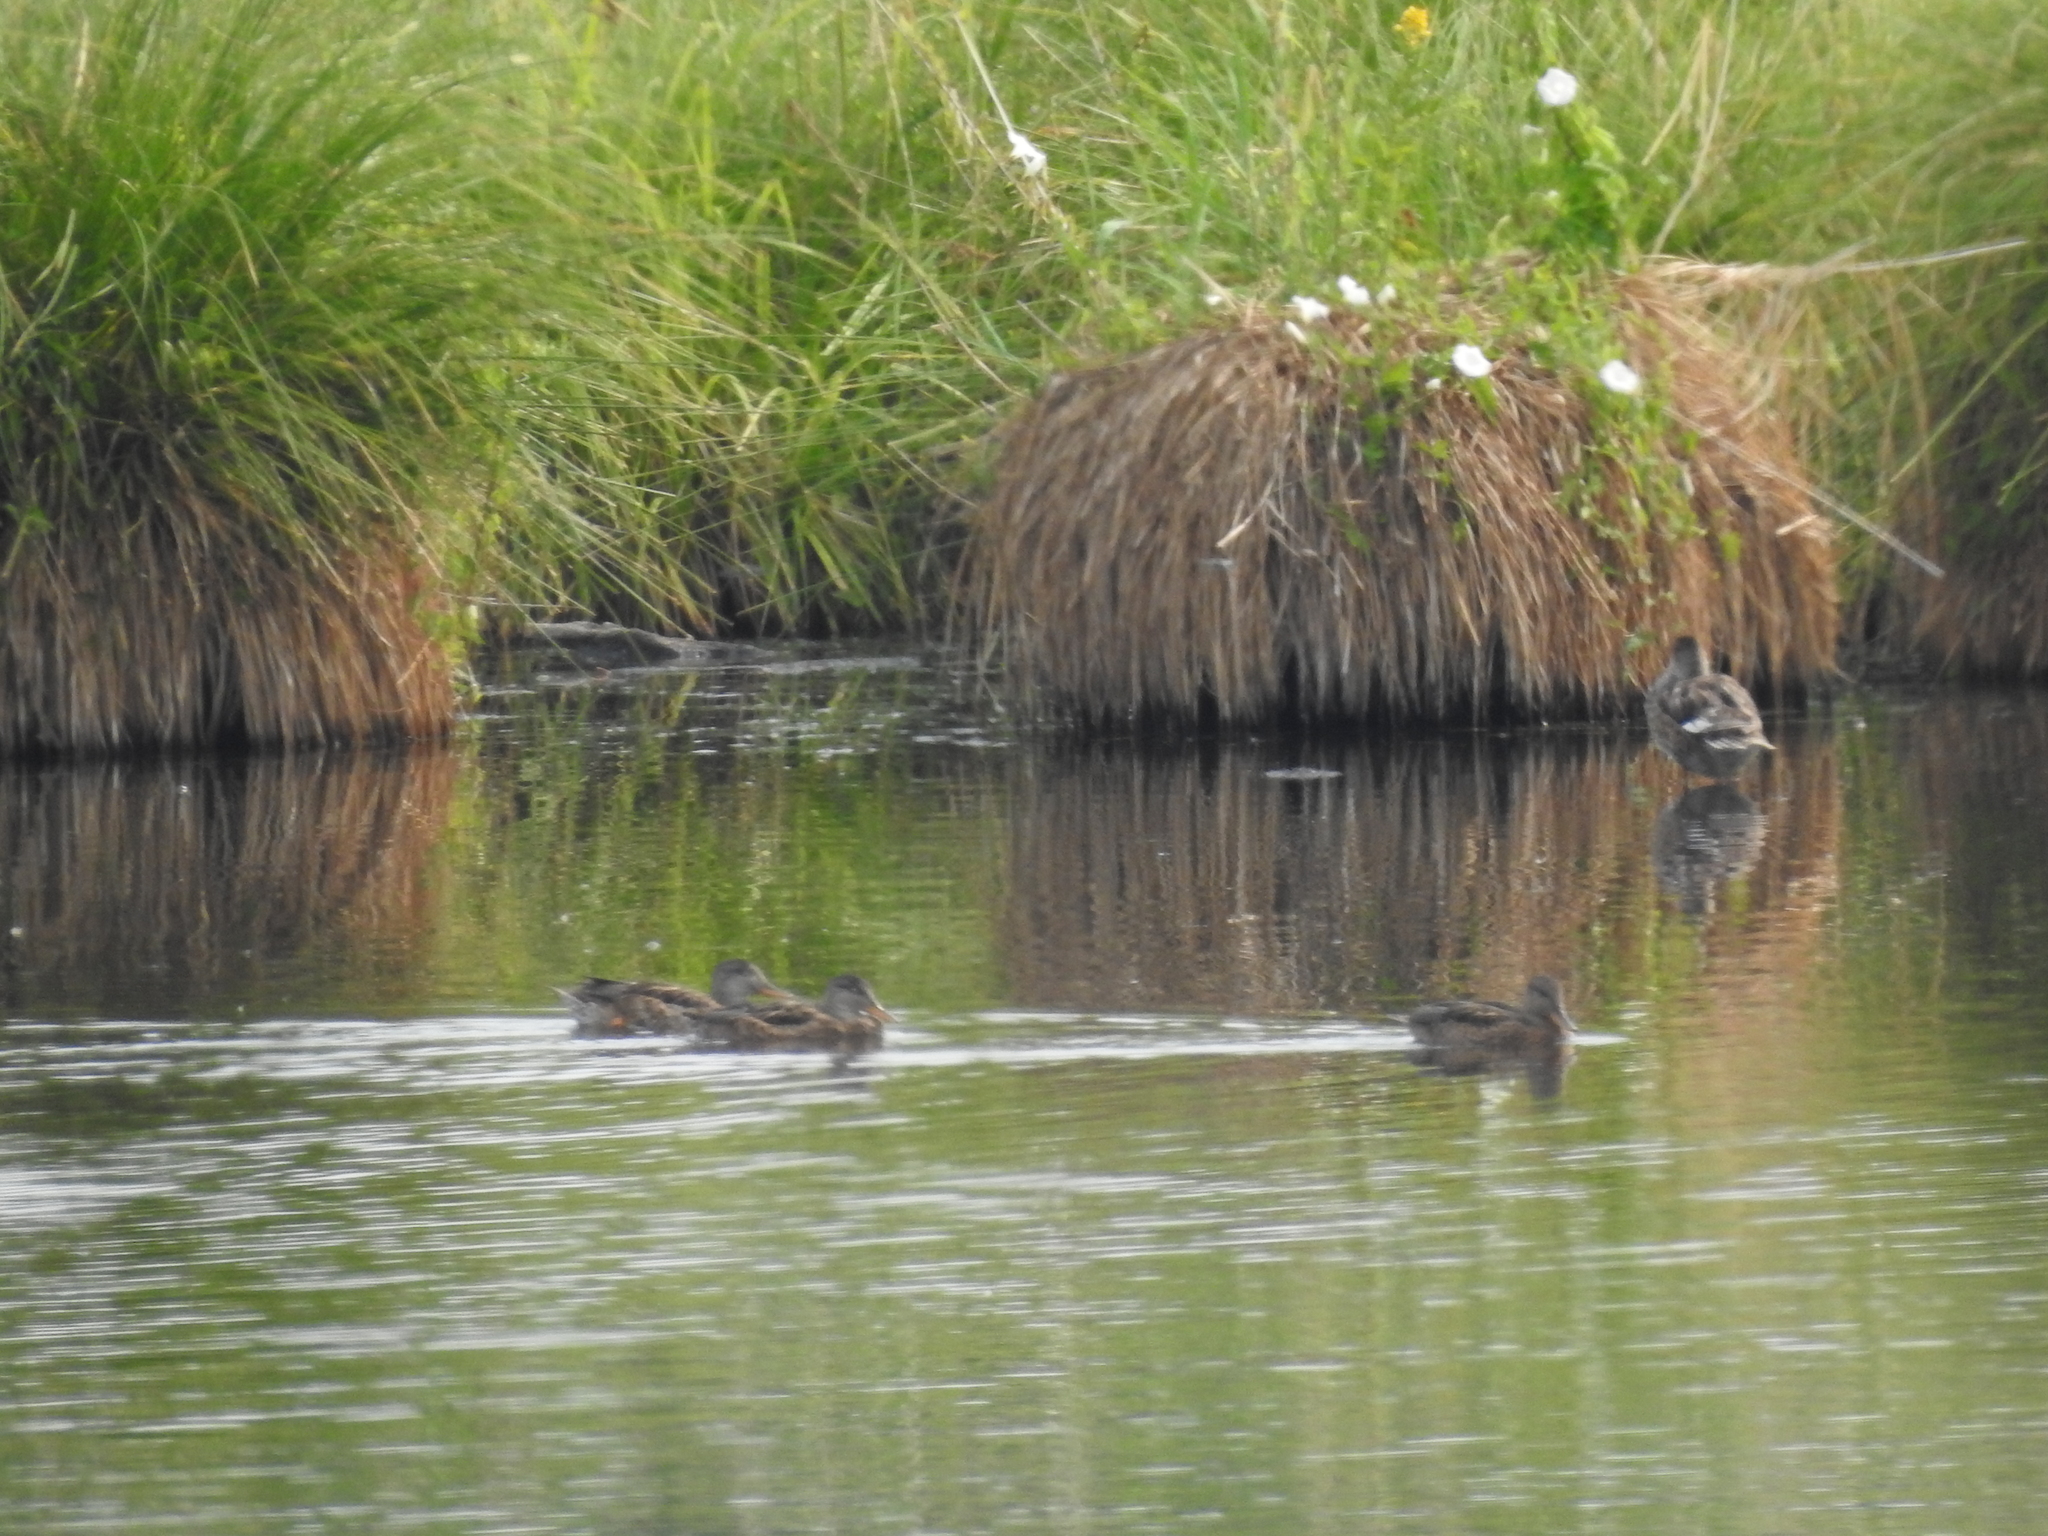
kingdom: Animalia
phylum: Chordata
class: Aves
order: Anseriformes
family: Anatidae
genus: Anas
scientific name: Anas platyrhynchos
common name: Mallard
